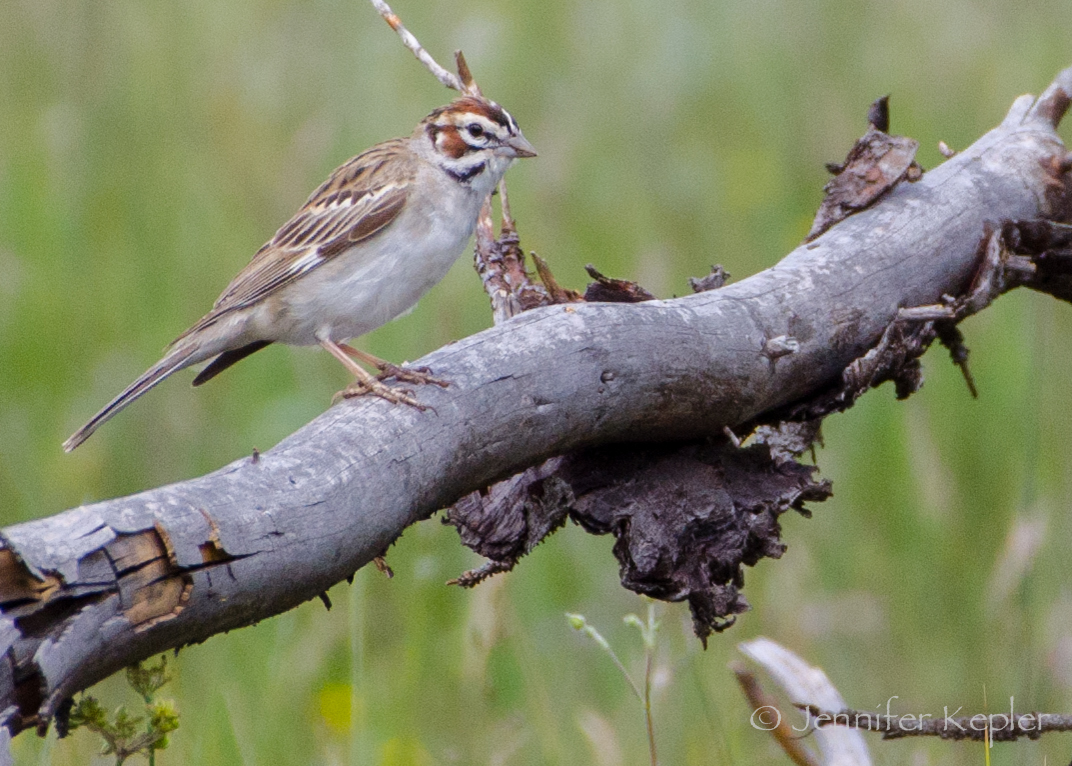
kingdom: Animalia
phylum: Chordata
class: Aves
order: Passeriformes
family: Passerellidae
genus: Chondestes
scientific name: Chondestes grammacus
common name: Lark sparrow
